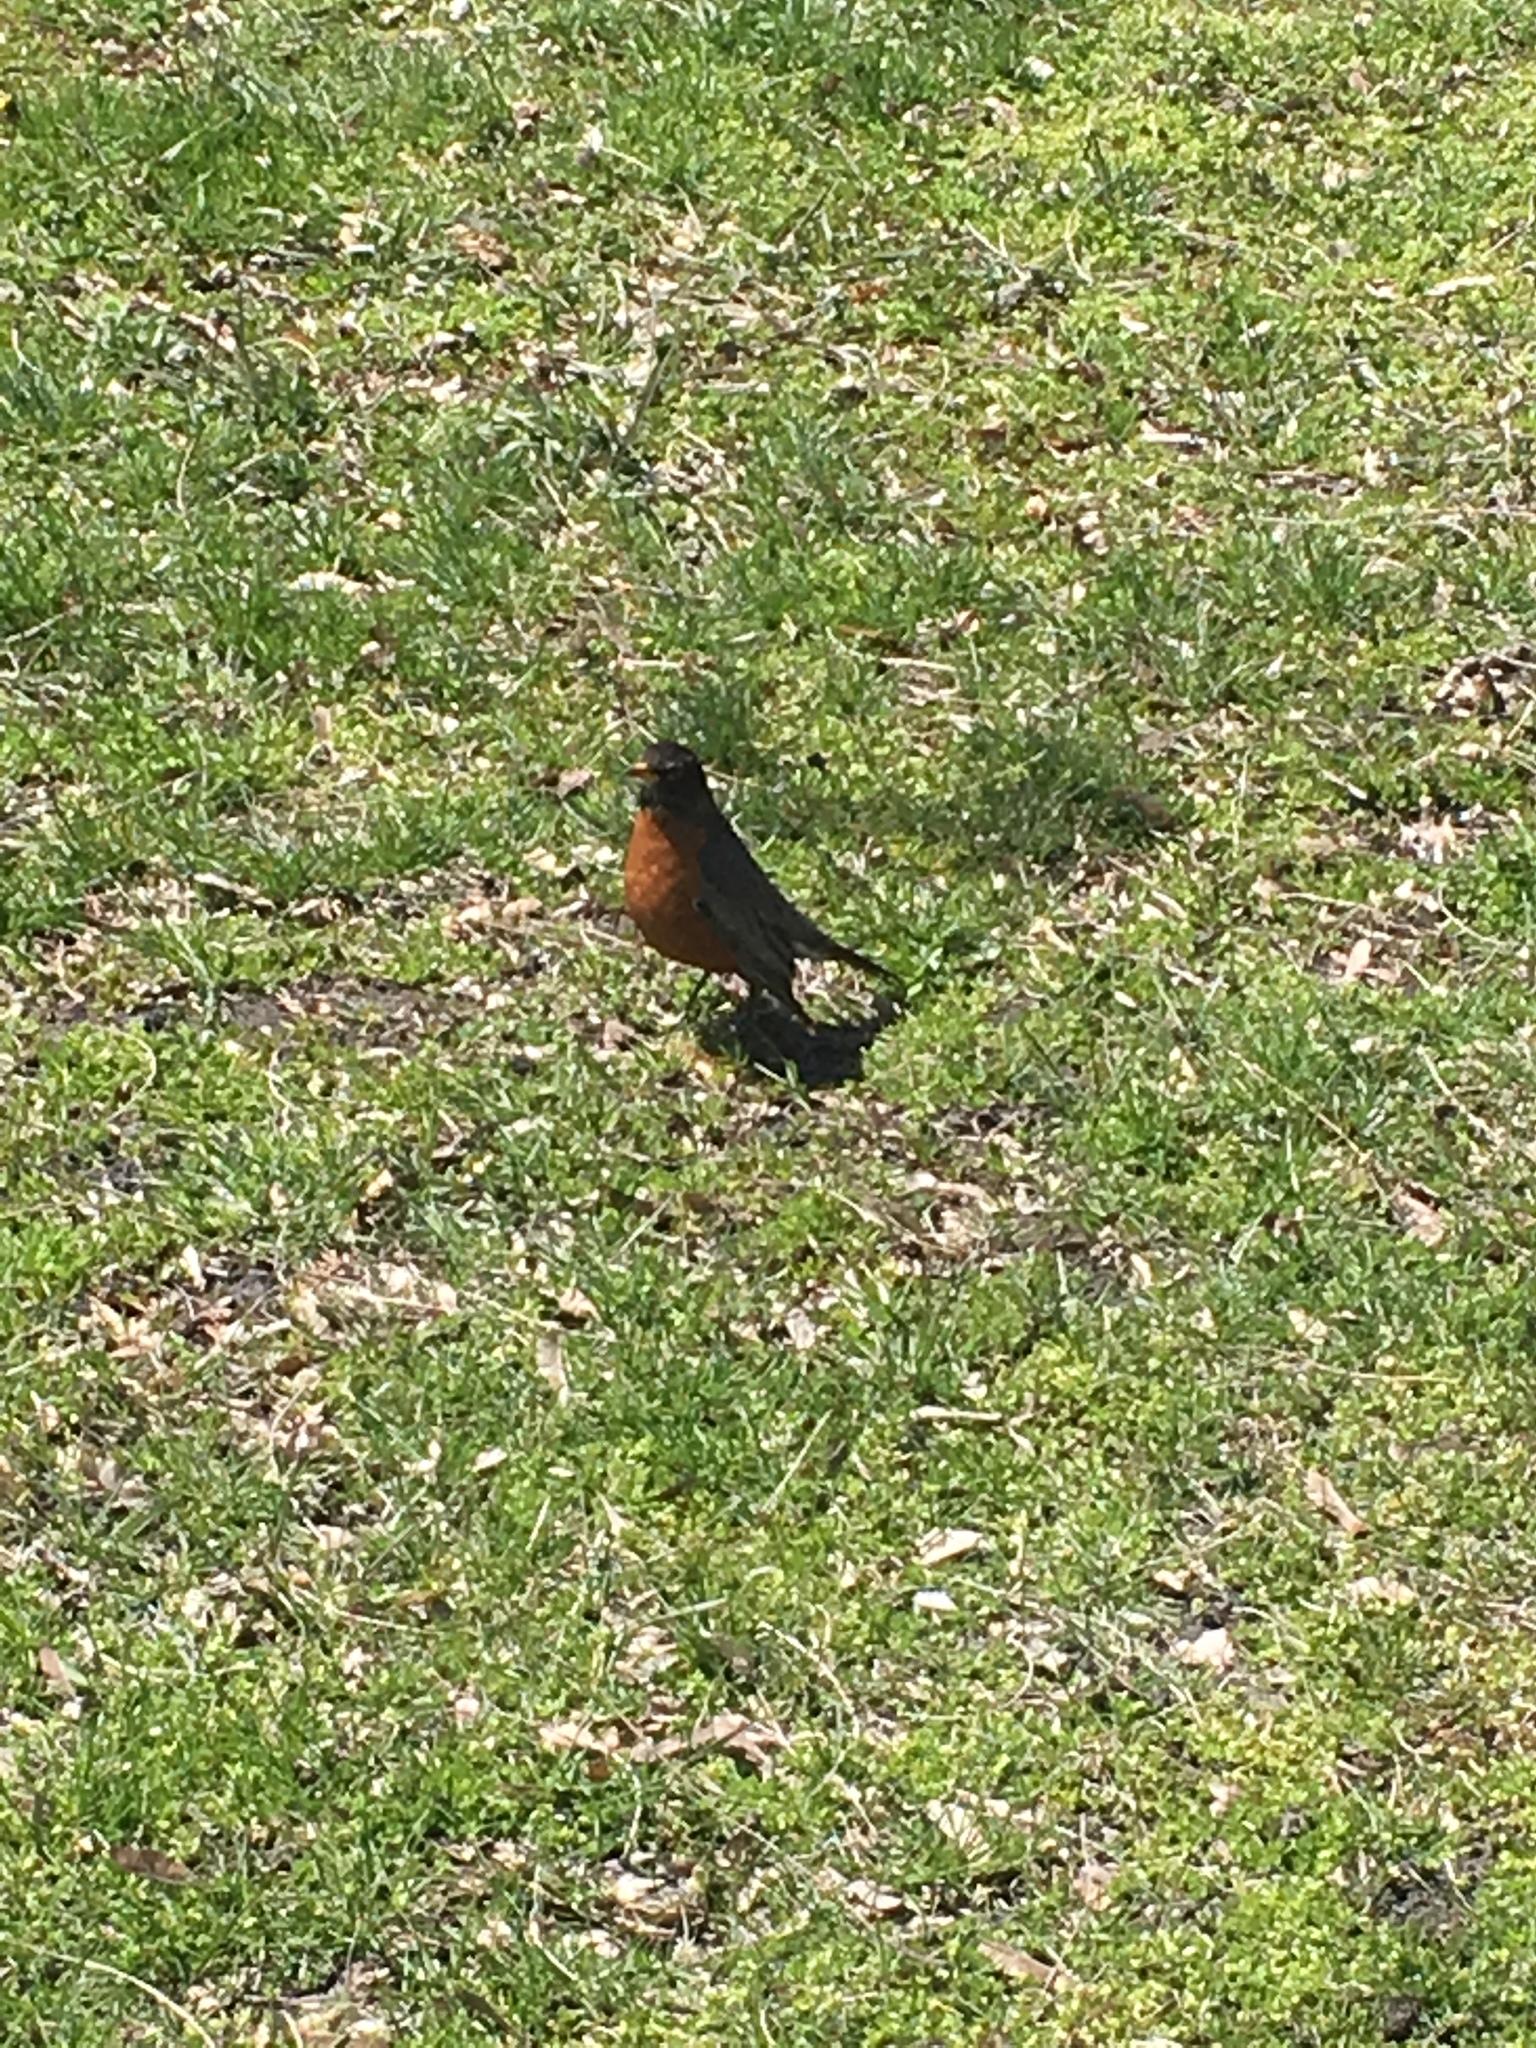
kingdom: Animalia
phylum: Chordata
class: Aves
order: Passeriformes
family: Turdidae
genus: Turdus
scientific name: Turdus migratorius
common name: American robin
